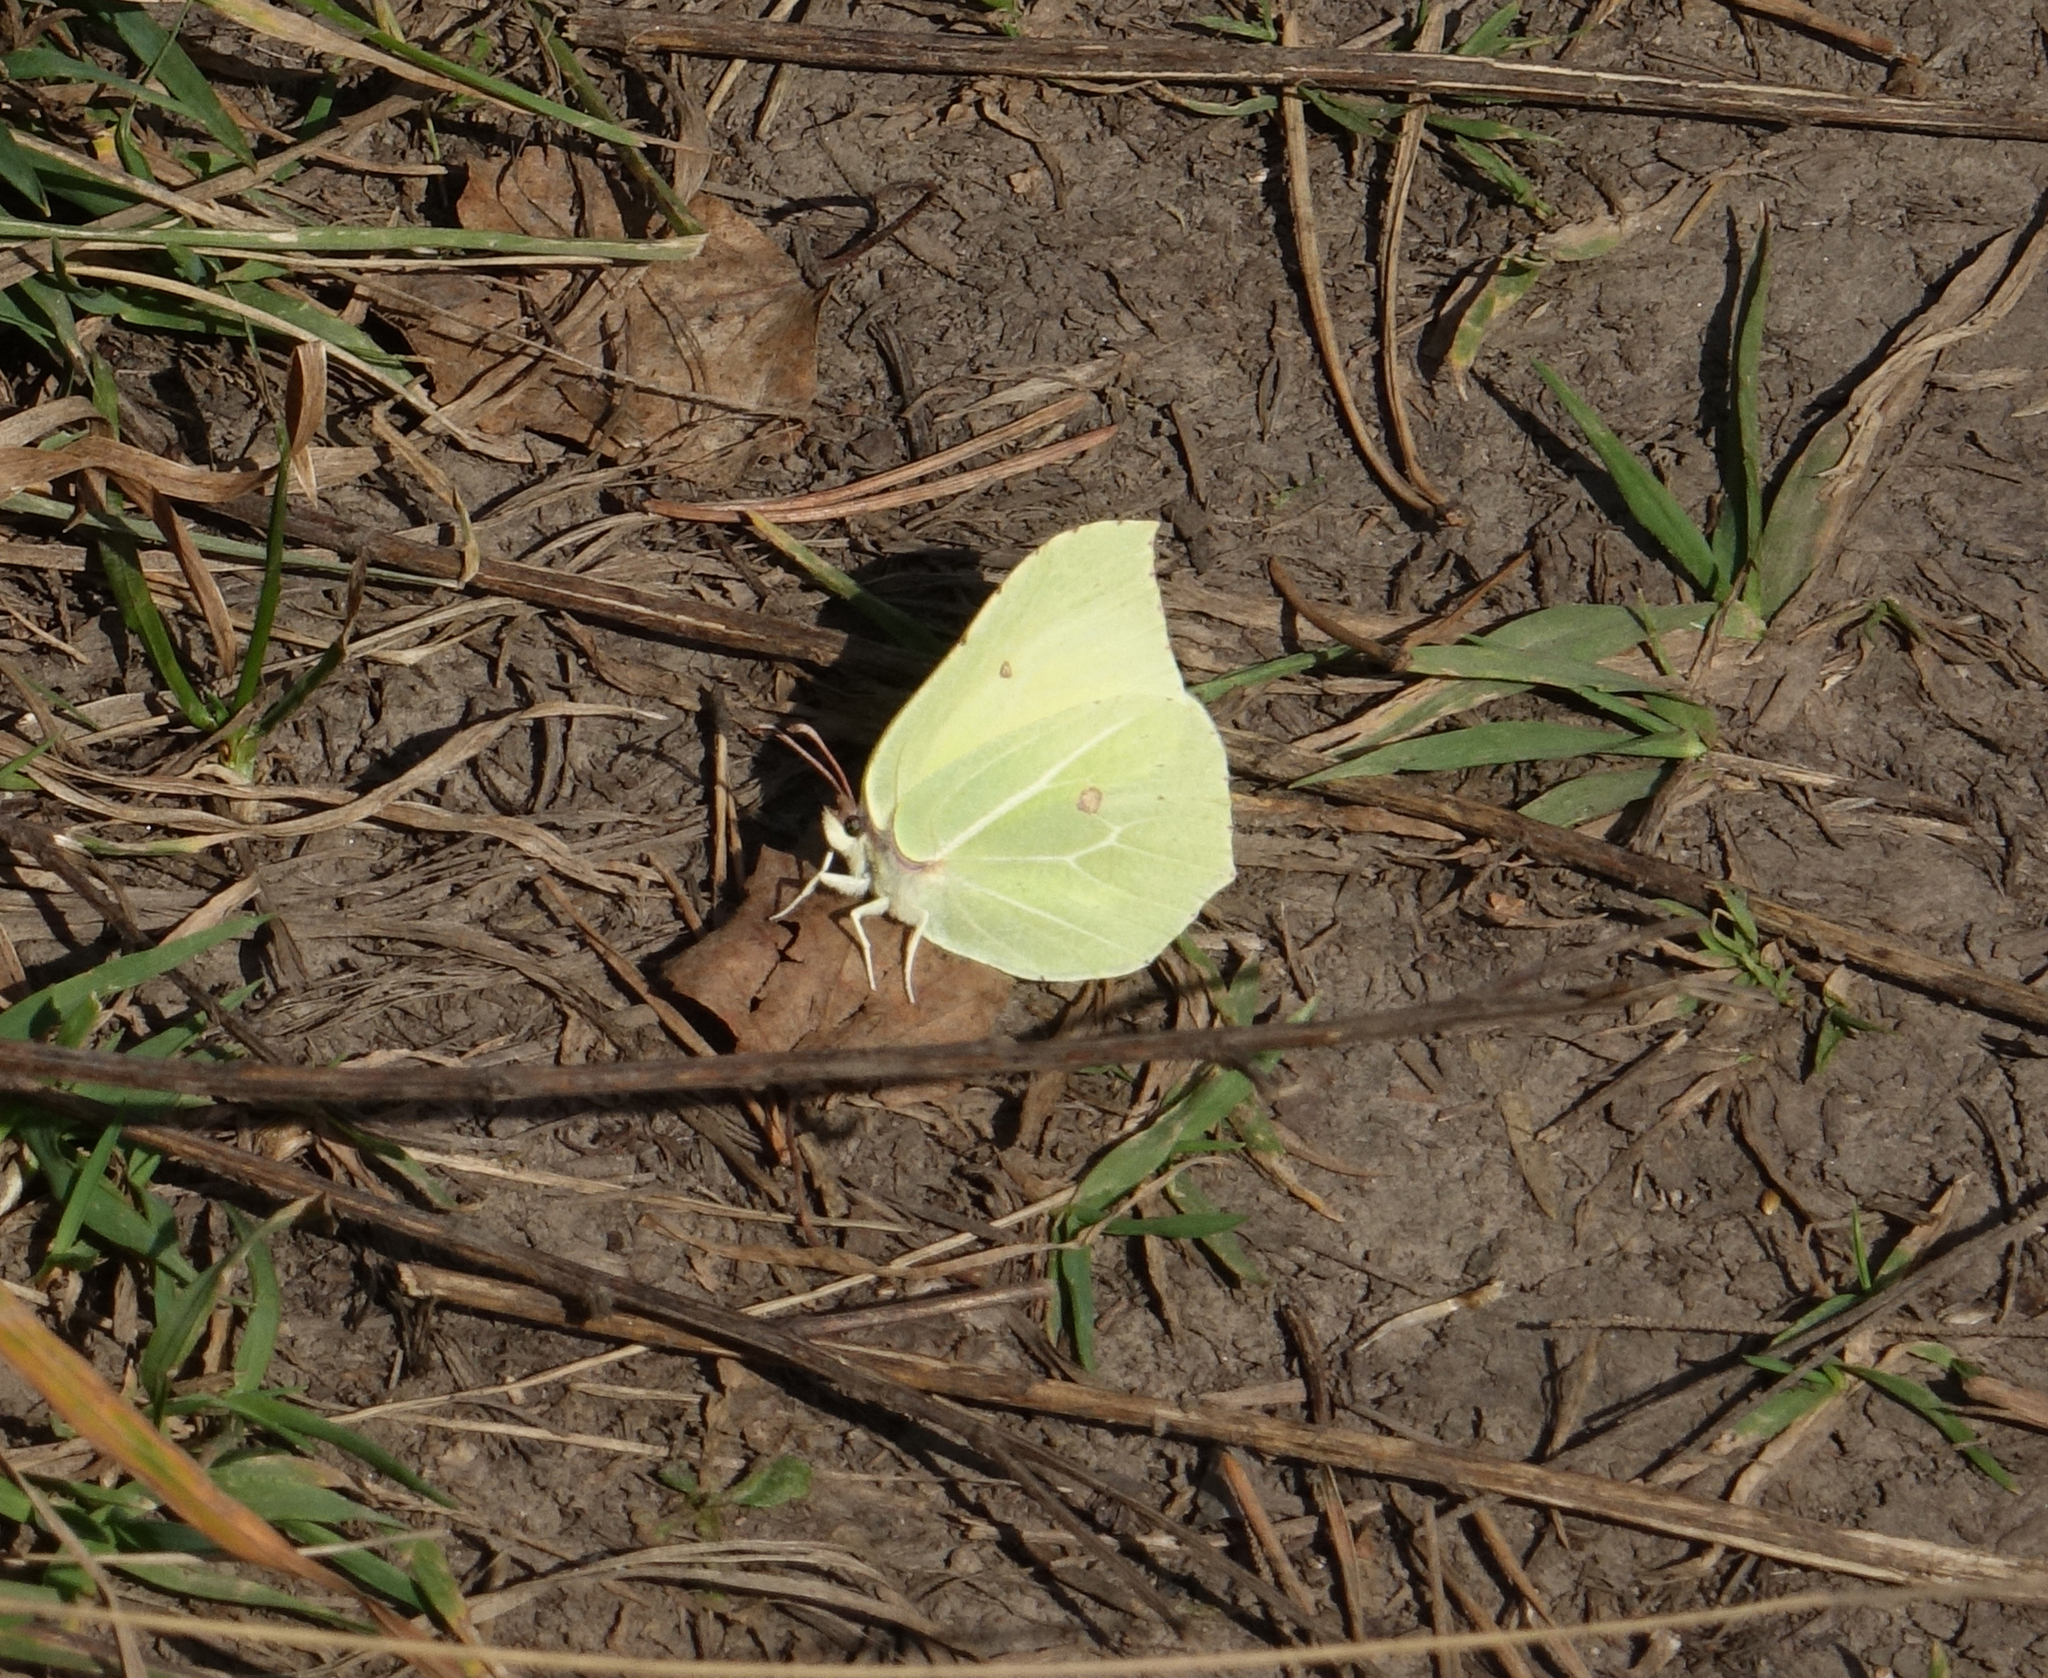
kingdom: Animalia
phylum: Arthropoda
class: Insecta
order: Lepidoptera
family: Pieridae
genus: Gonepteryx
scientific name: Gonepteryx rhamni
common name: Brimstone
